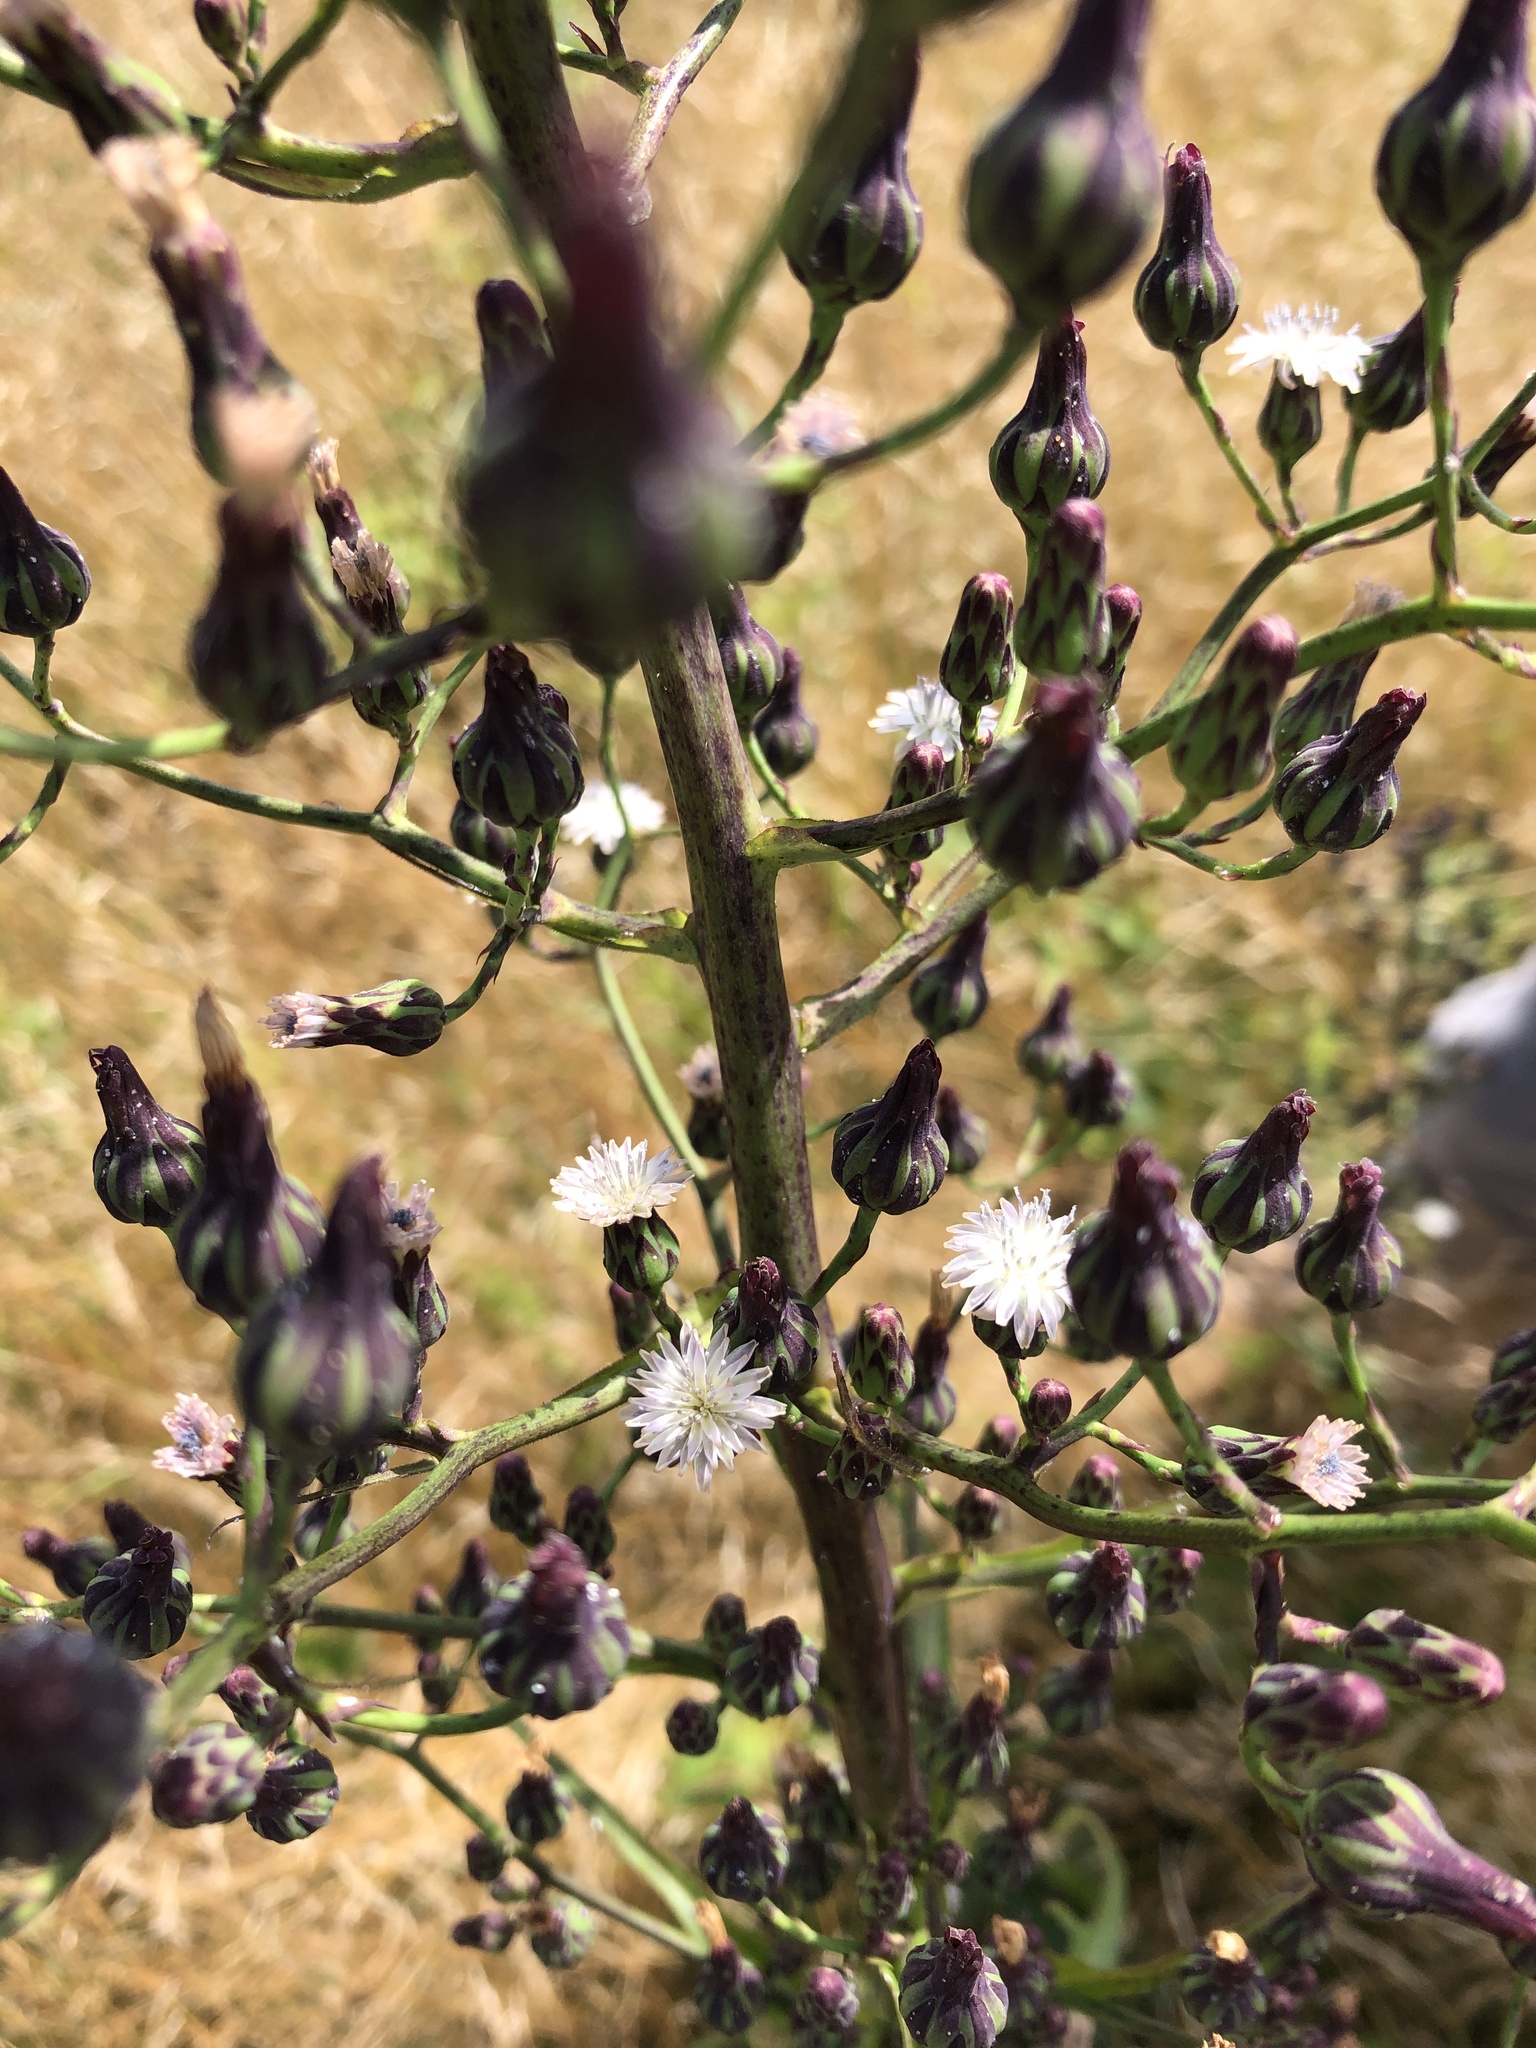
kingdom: Plantae
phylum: Tracheophyta
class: Magnoliopsida
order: Asterales
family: Asteraceae
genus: Lactuca
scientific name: Lactuca biennis
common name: Blue wood lettuce
